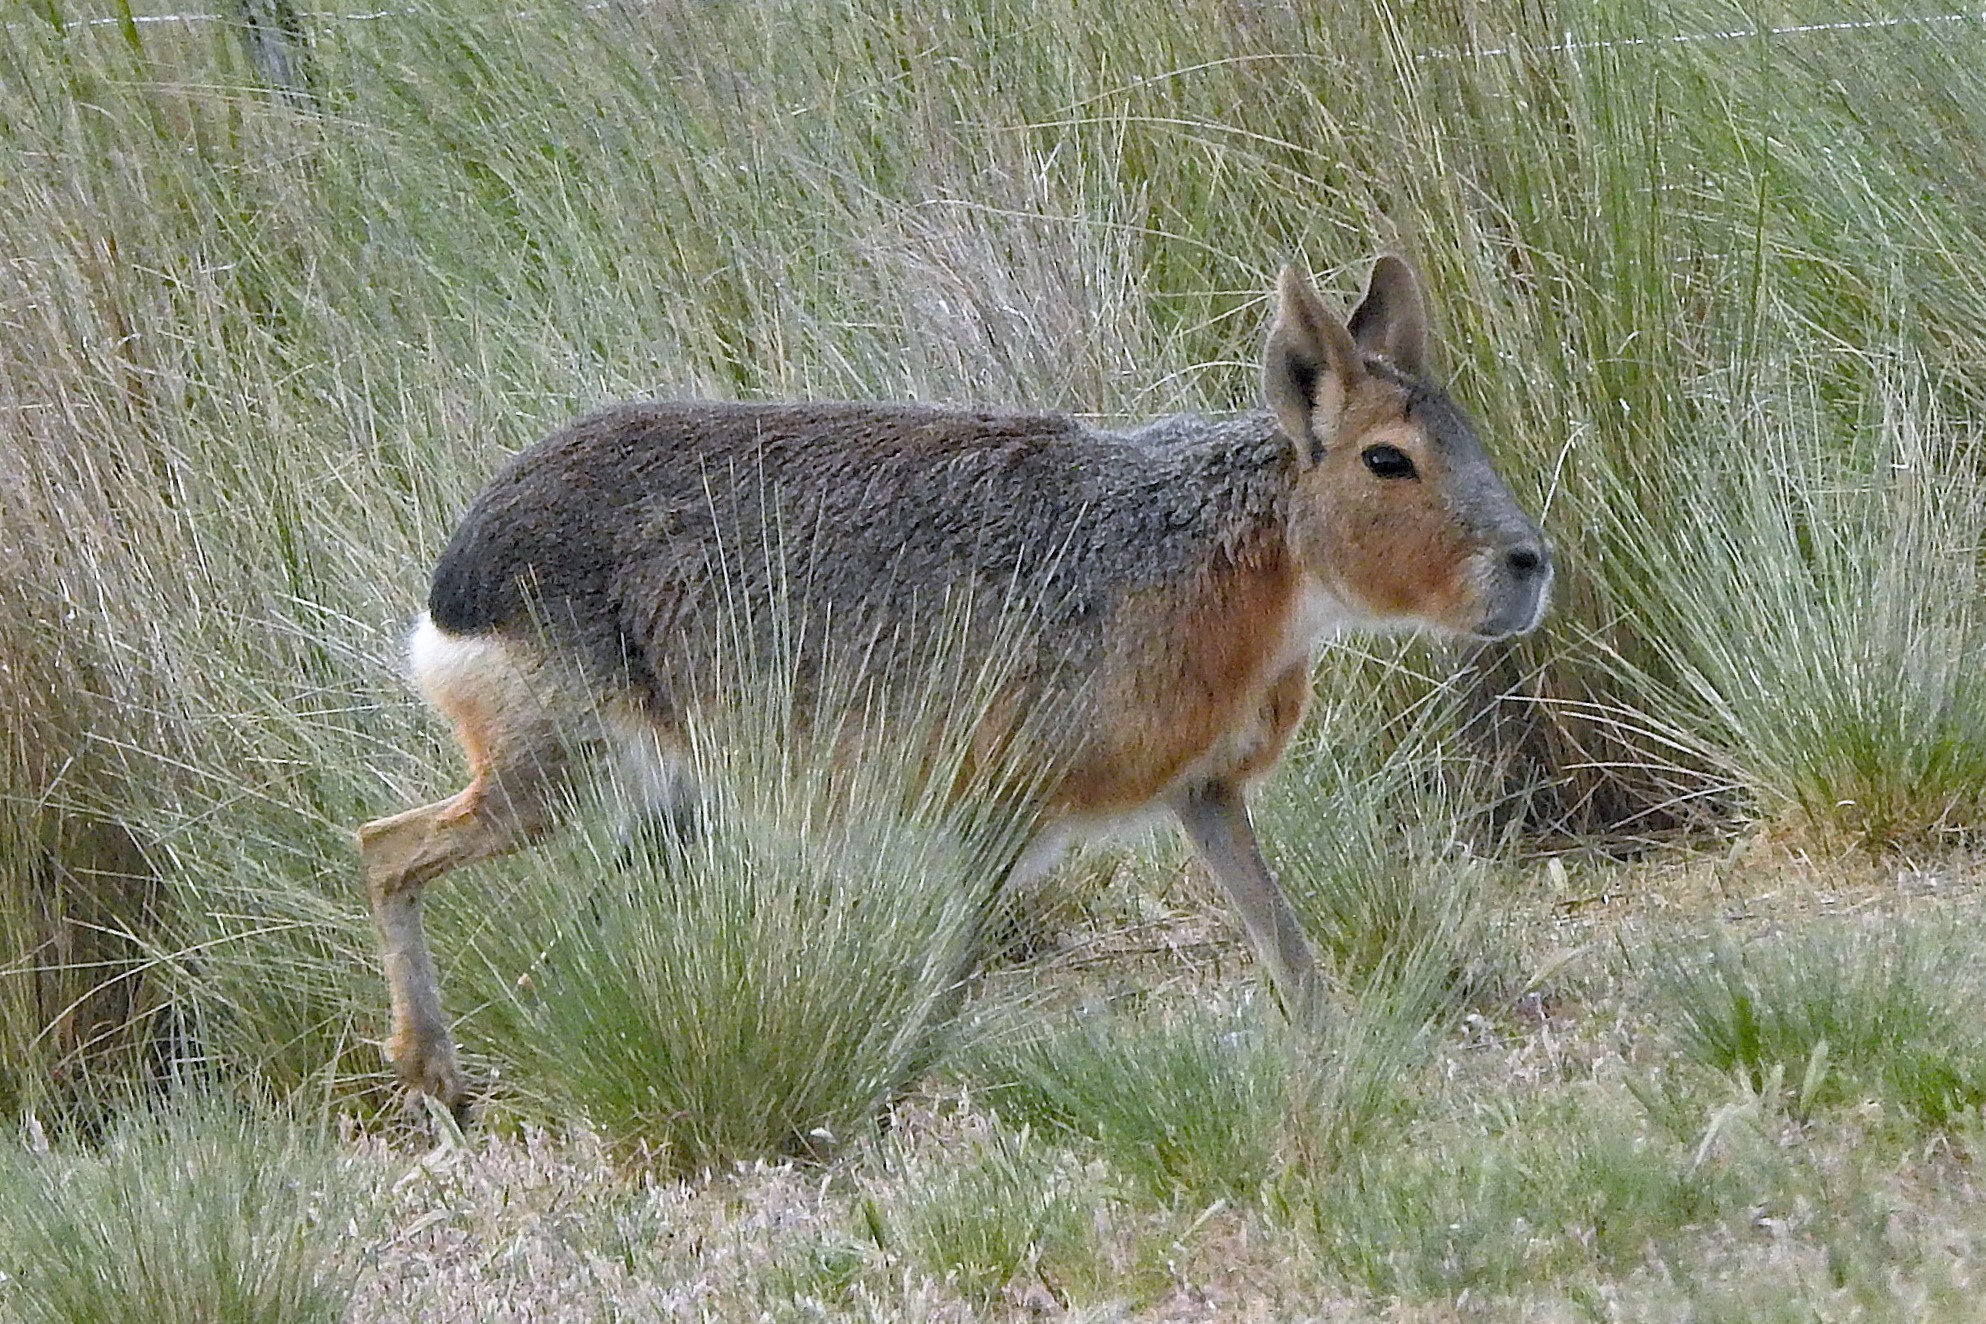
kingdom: Animalia
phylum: Chordata
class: Mammalia
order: Rodentia
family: Caviidae
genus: Dolichotis
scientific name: Dolichotis patagonum
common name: Patagonian mara
